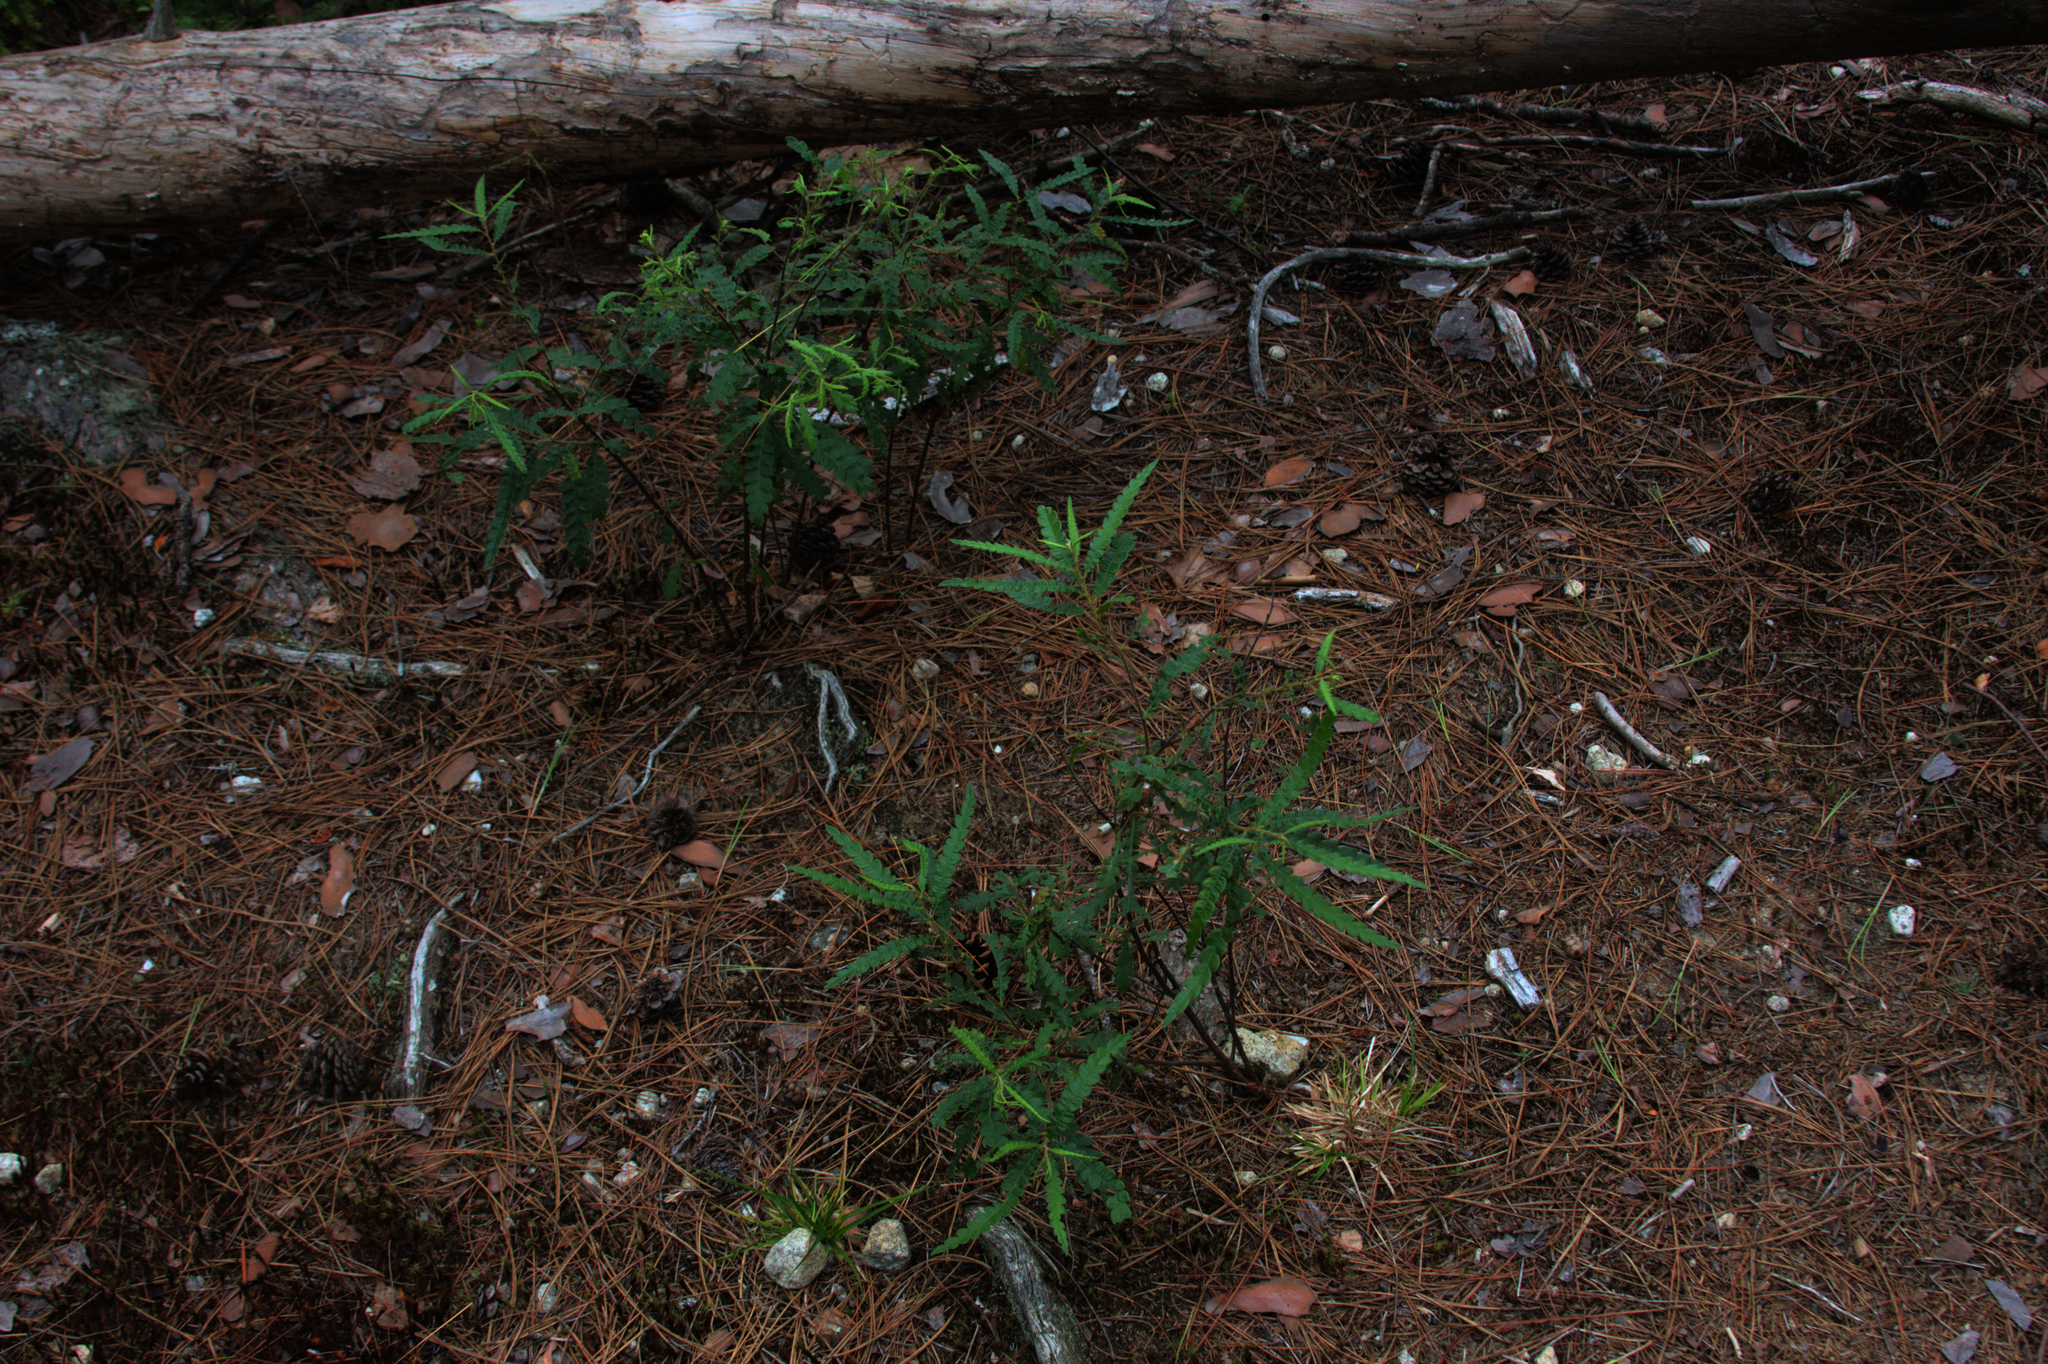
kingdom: Plantae
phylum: Tracheophyta
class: Magnoliopsida
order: Fagales
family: Myricaceae
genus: Comptonia
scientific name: Comptonia peregrina
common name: Sweet-fern
